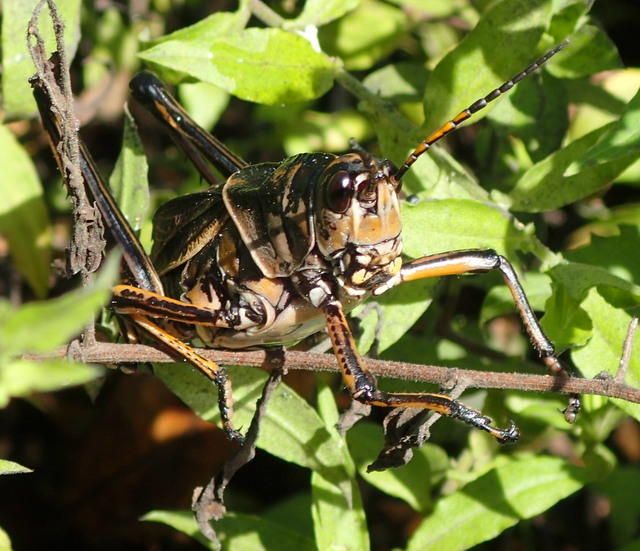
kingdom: Animalia
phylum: Arthropoda
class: Insecta
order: Orthoptera
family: Romaleidae
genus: Romalea
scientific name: Romalea microptera
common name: Eastern lubber grasshopper
